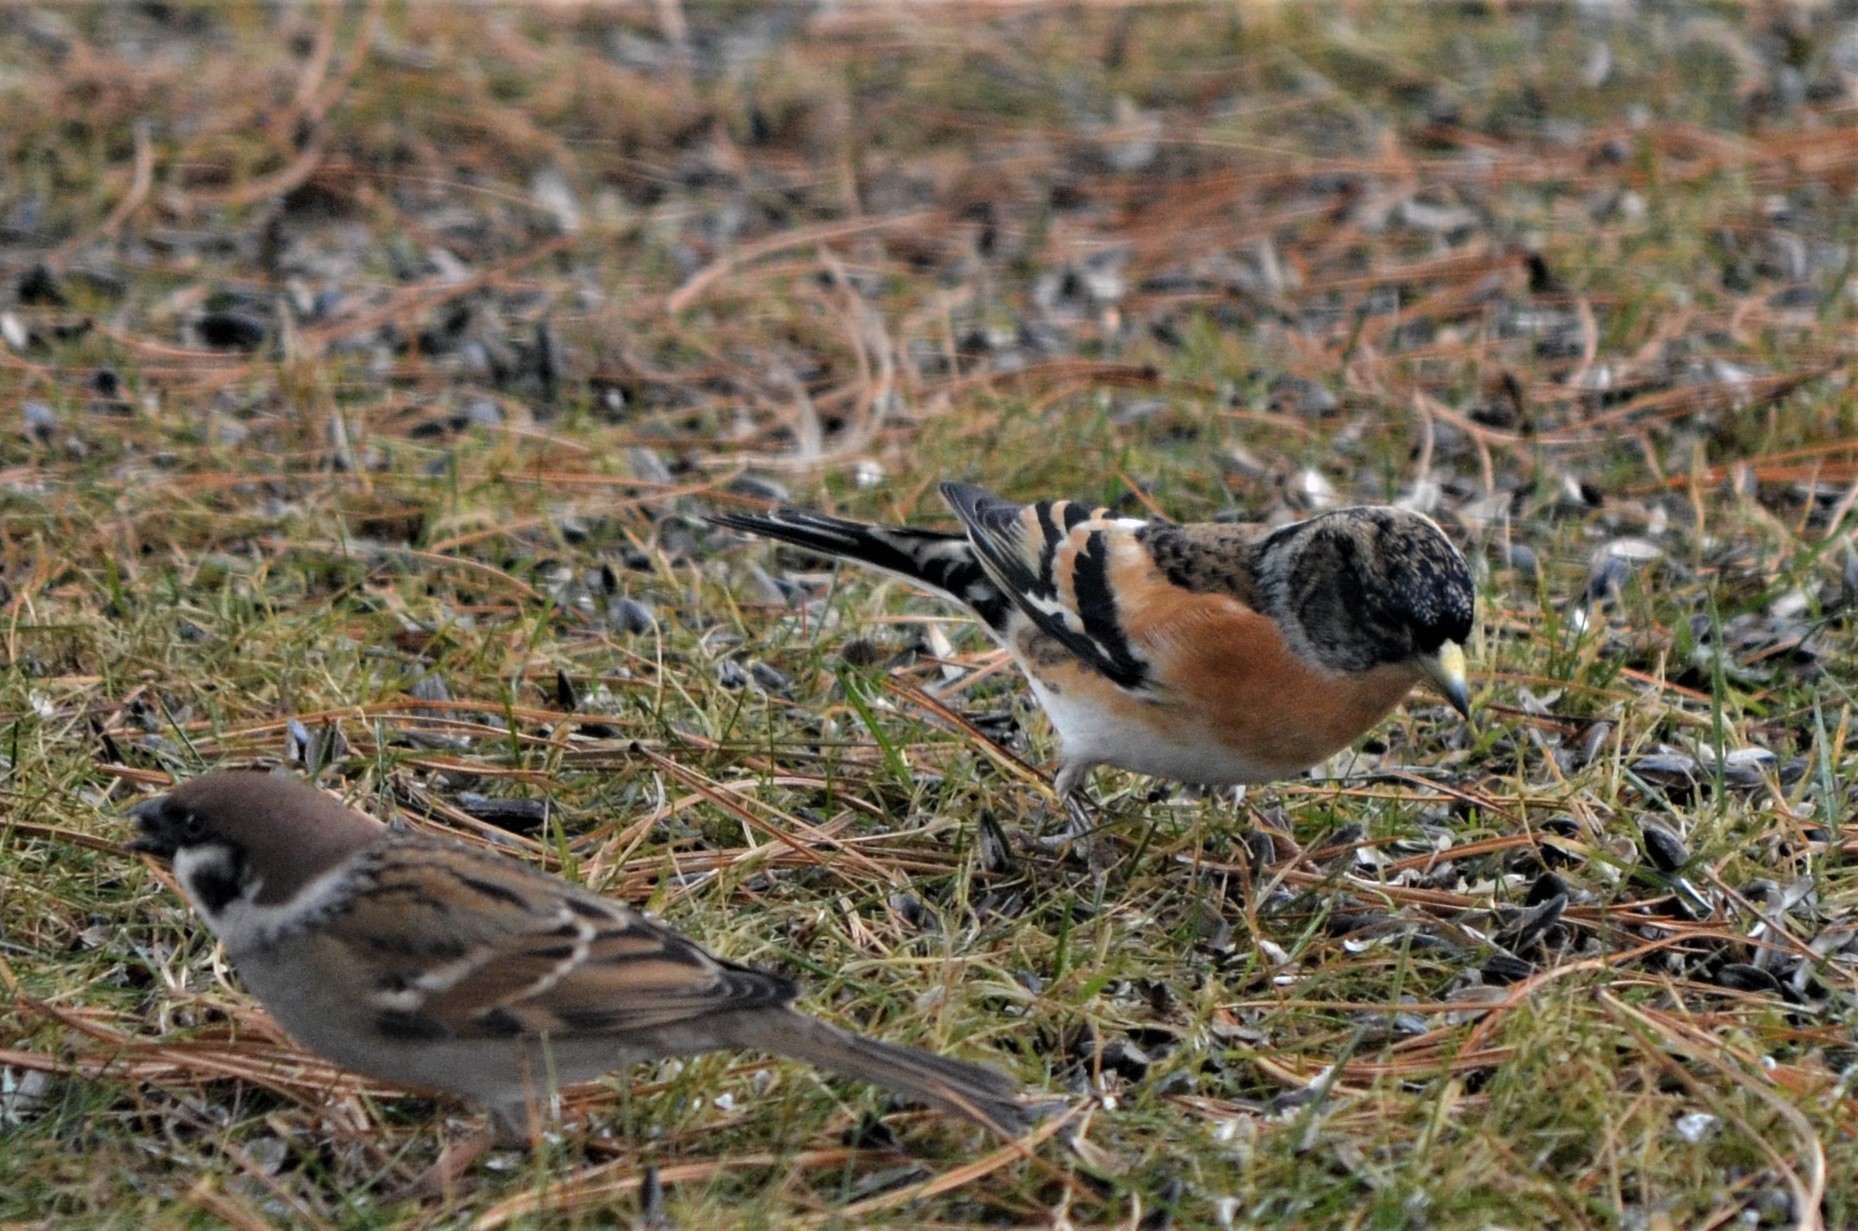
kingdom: Animalia
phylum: Chordata
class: Aves
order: Passeriformes
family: Passeridae
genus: Passer
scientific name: Passer montanus
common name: Eurasian tree sparrow
